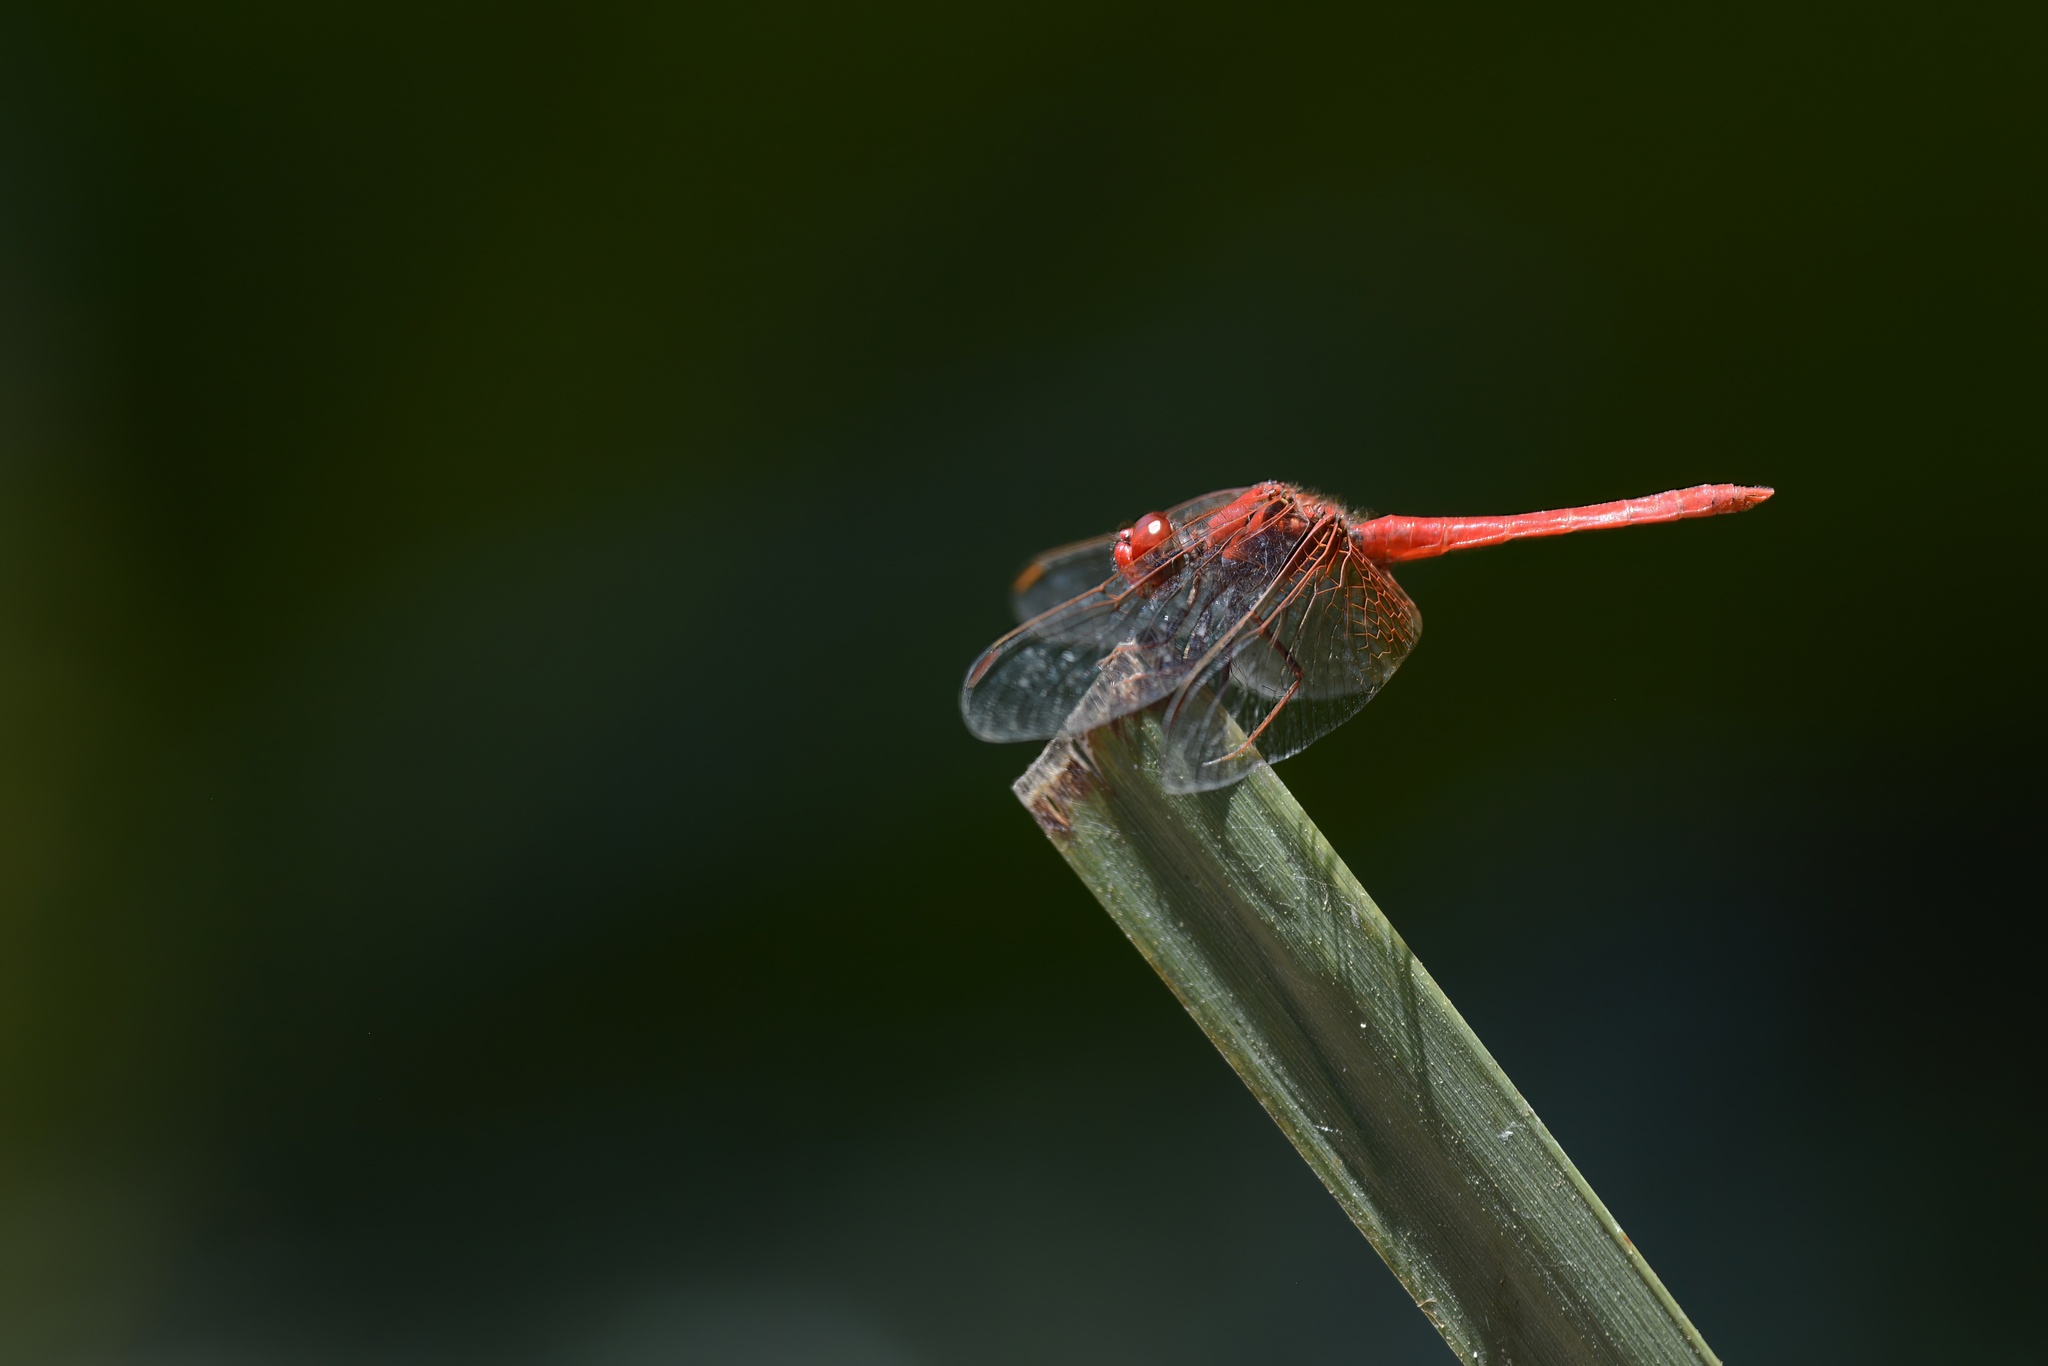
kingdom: Animalia
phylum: Arthropoda
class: Insecta
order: Odonata
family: Libellulidae
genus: Diplacodes
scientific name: Diplacodes haematodes
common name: Scarlet percher
